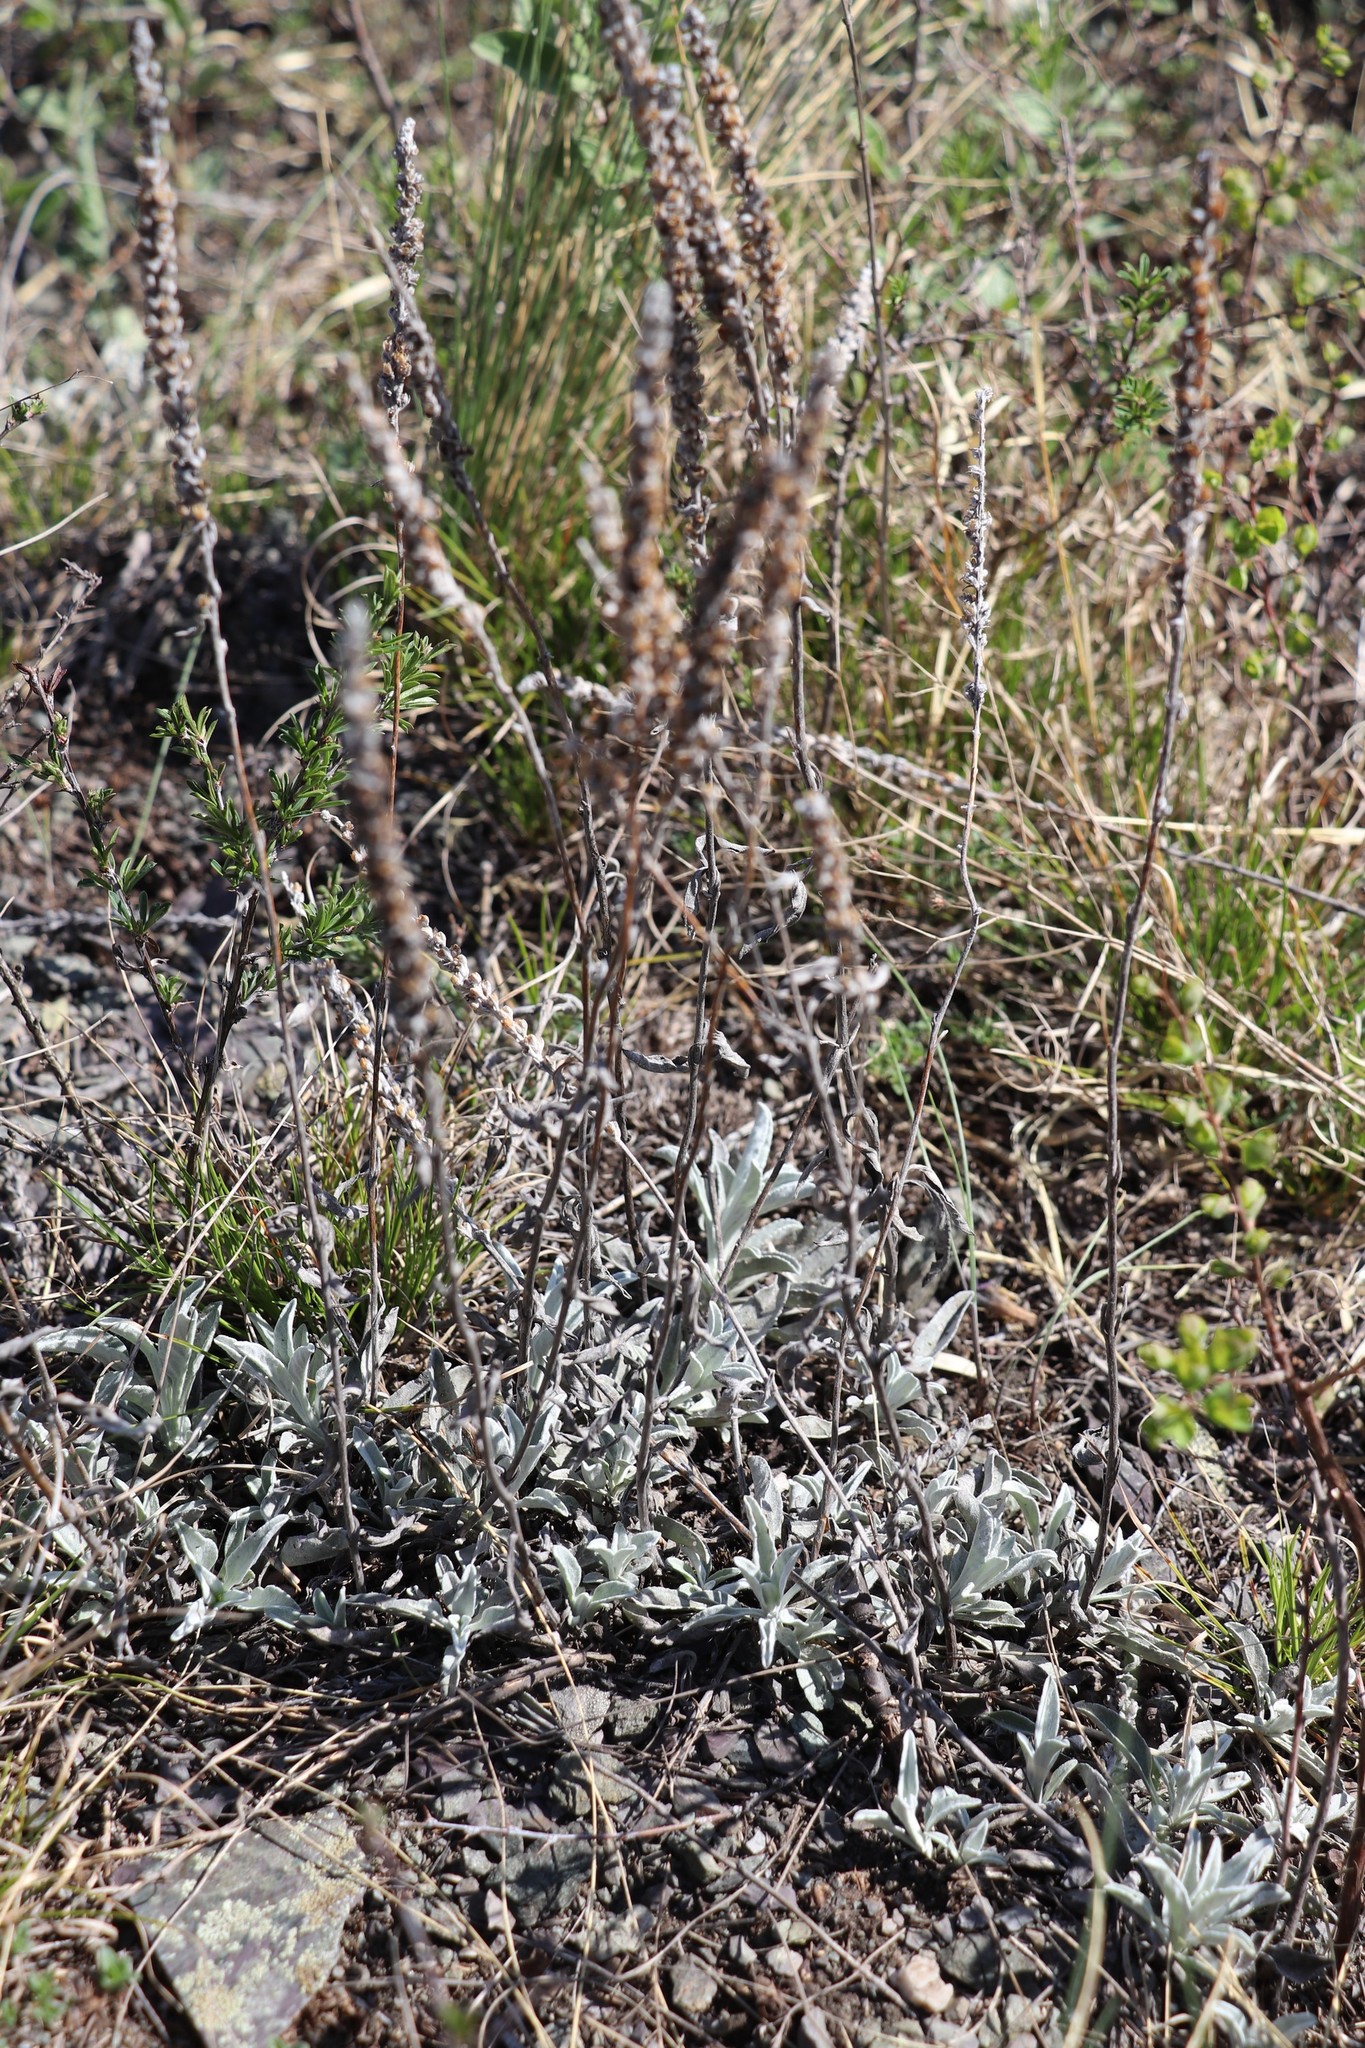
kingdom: Plantae
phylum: Tracheophyta
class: Magnoliopsida
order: Lamiales
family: Plantaginaceae
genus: Veronica
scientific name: Veronica incana
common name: Silver speedwell
